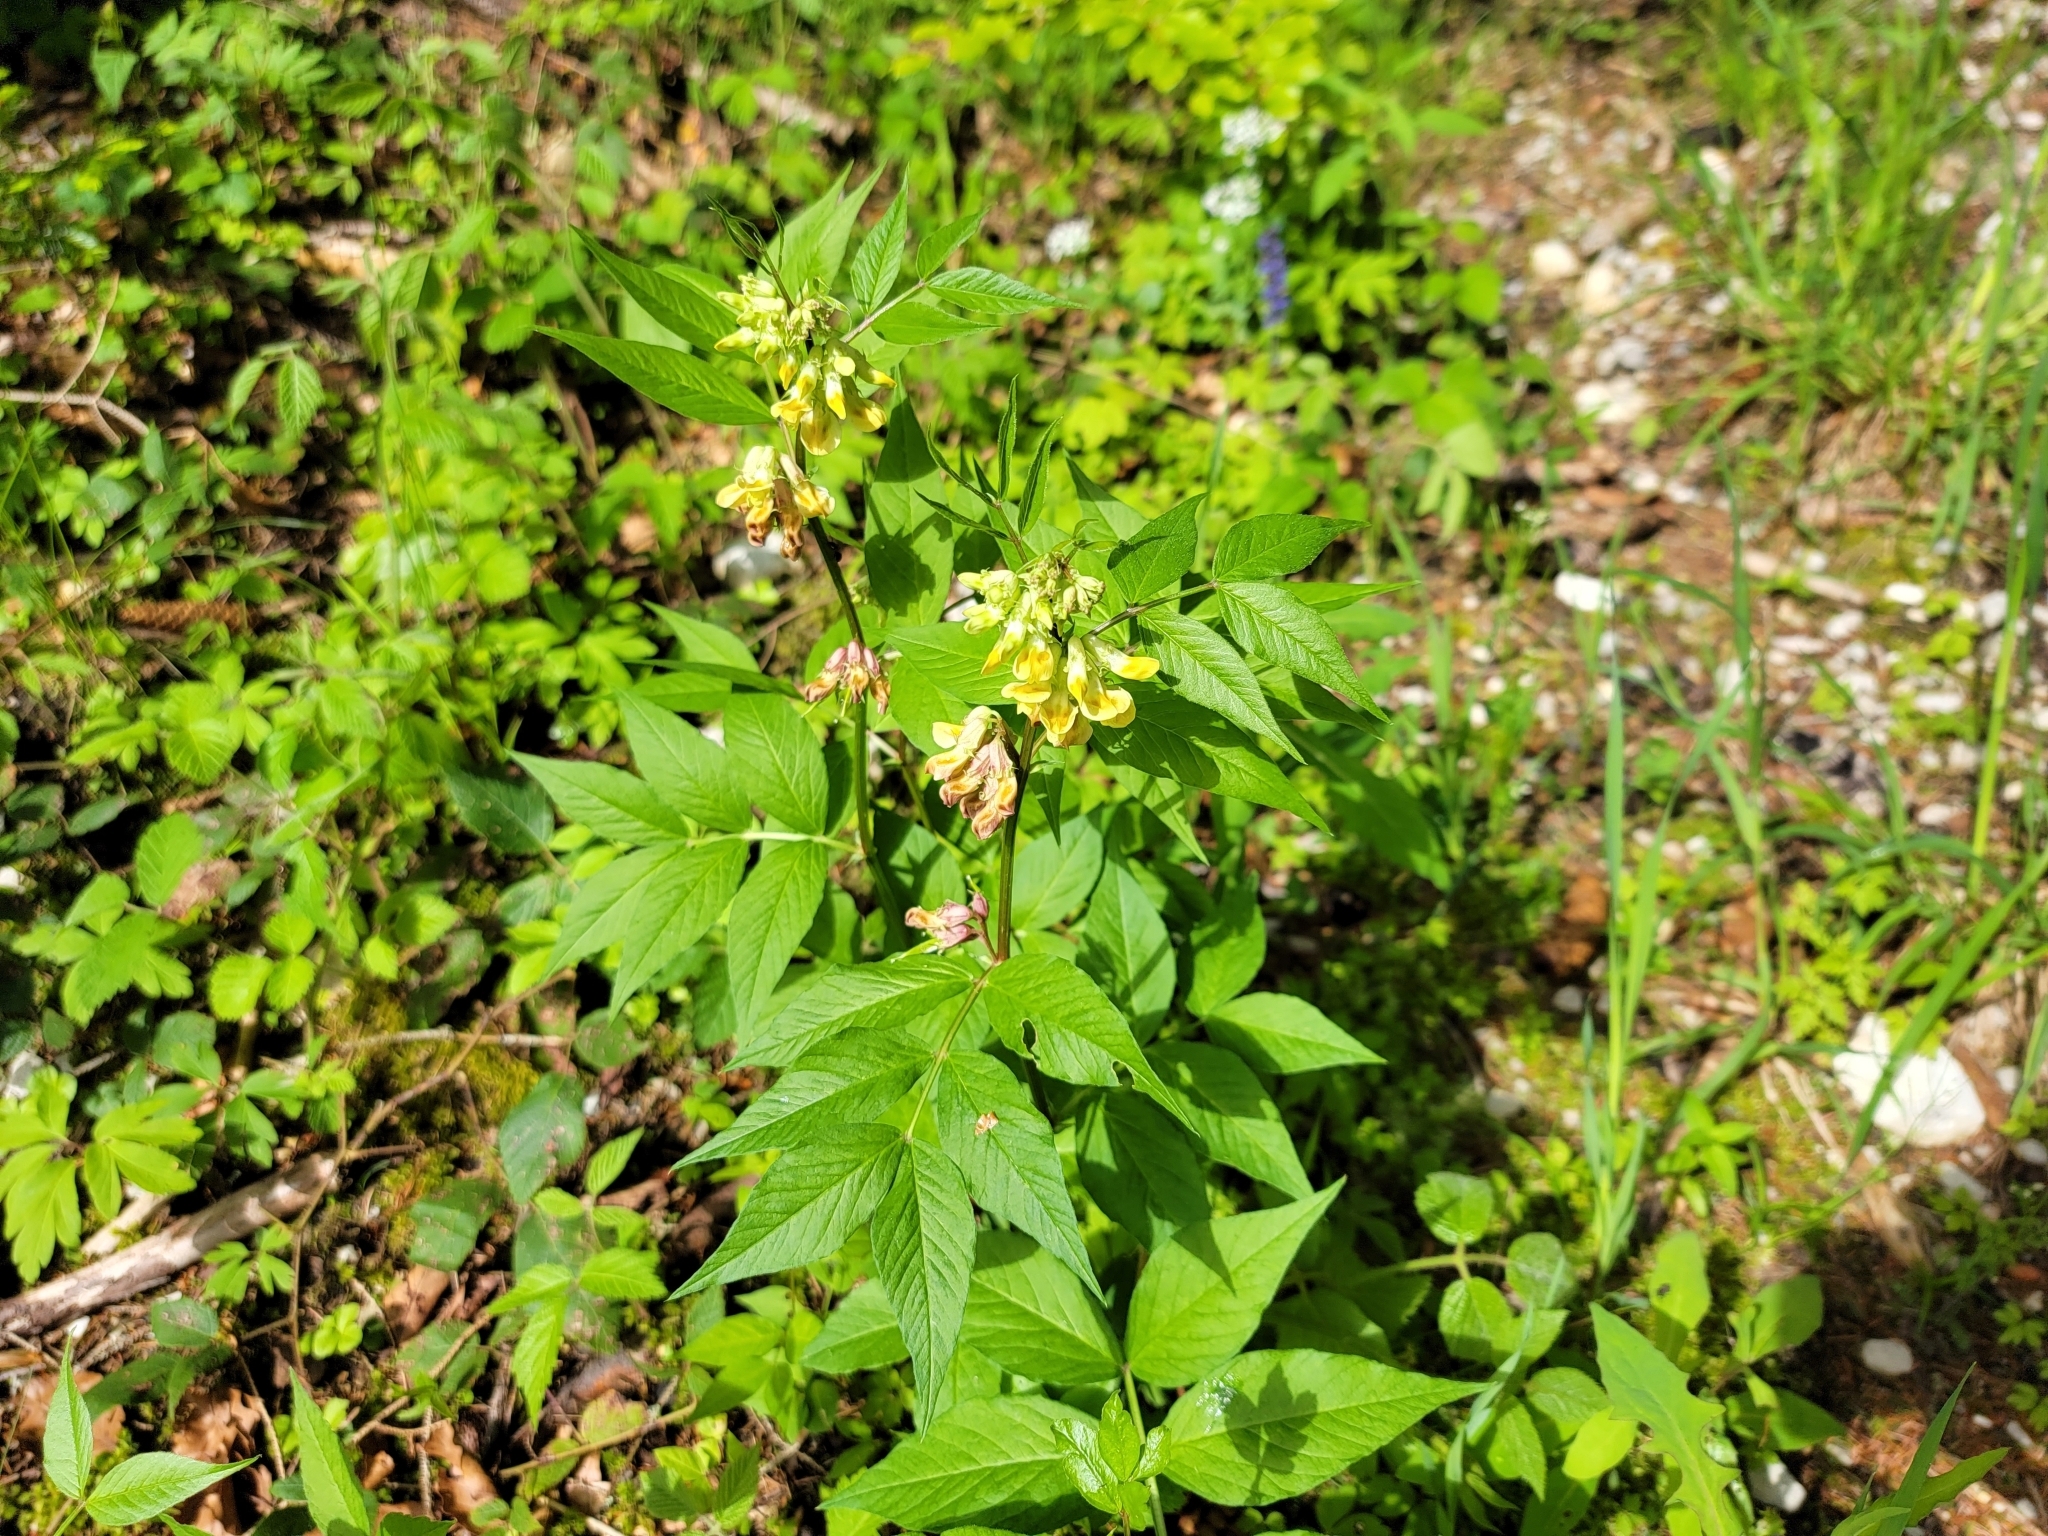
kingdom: Plantae
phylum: Tracheophyta
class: Magnoliopsida
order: Fabales
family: Fabaceae
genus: Vicia
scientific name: Vicia oroboides
